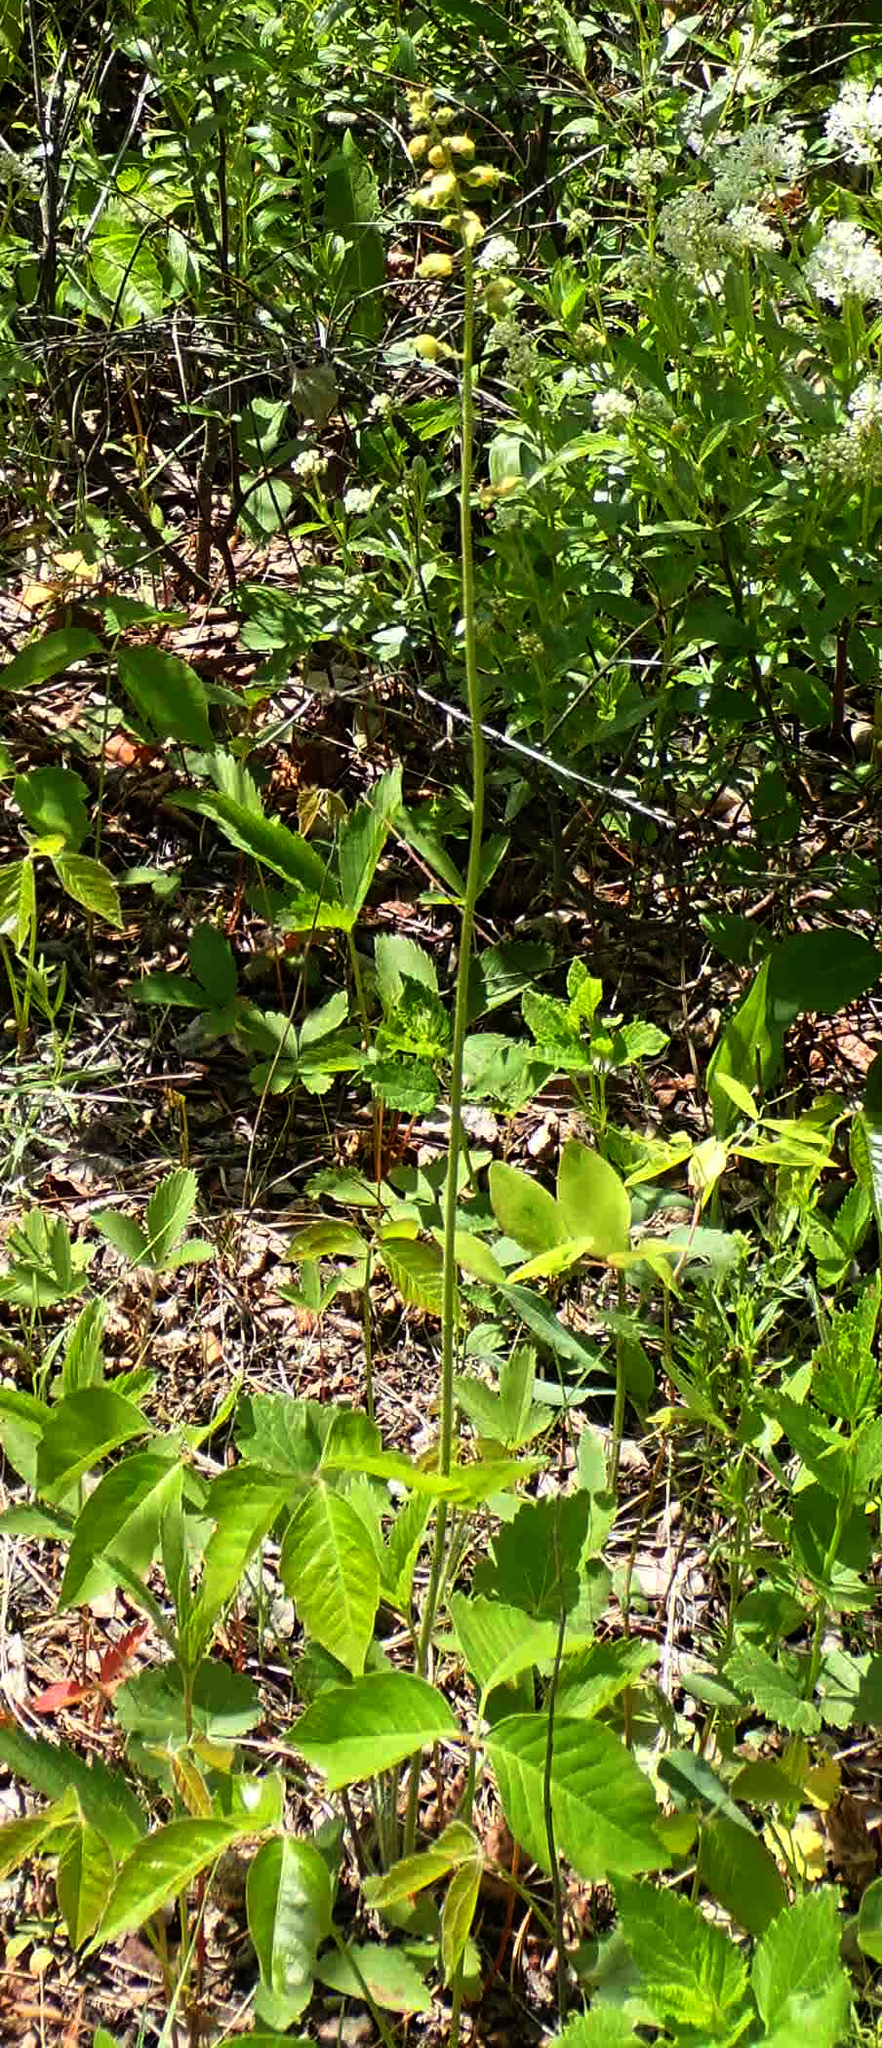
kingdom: Plantae
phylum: Tracheophyta
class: Magnoliopsida
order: Saxifragales
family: Saxifragaceae
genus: Heuchera
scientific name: Heuchera richardsonii
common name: Richardson's alumroot
